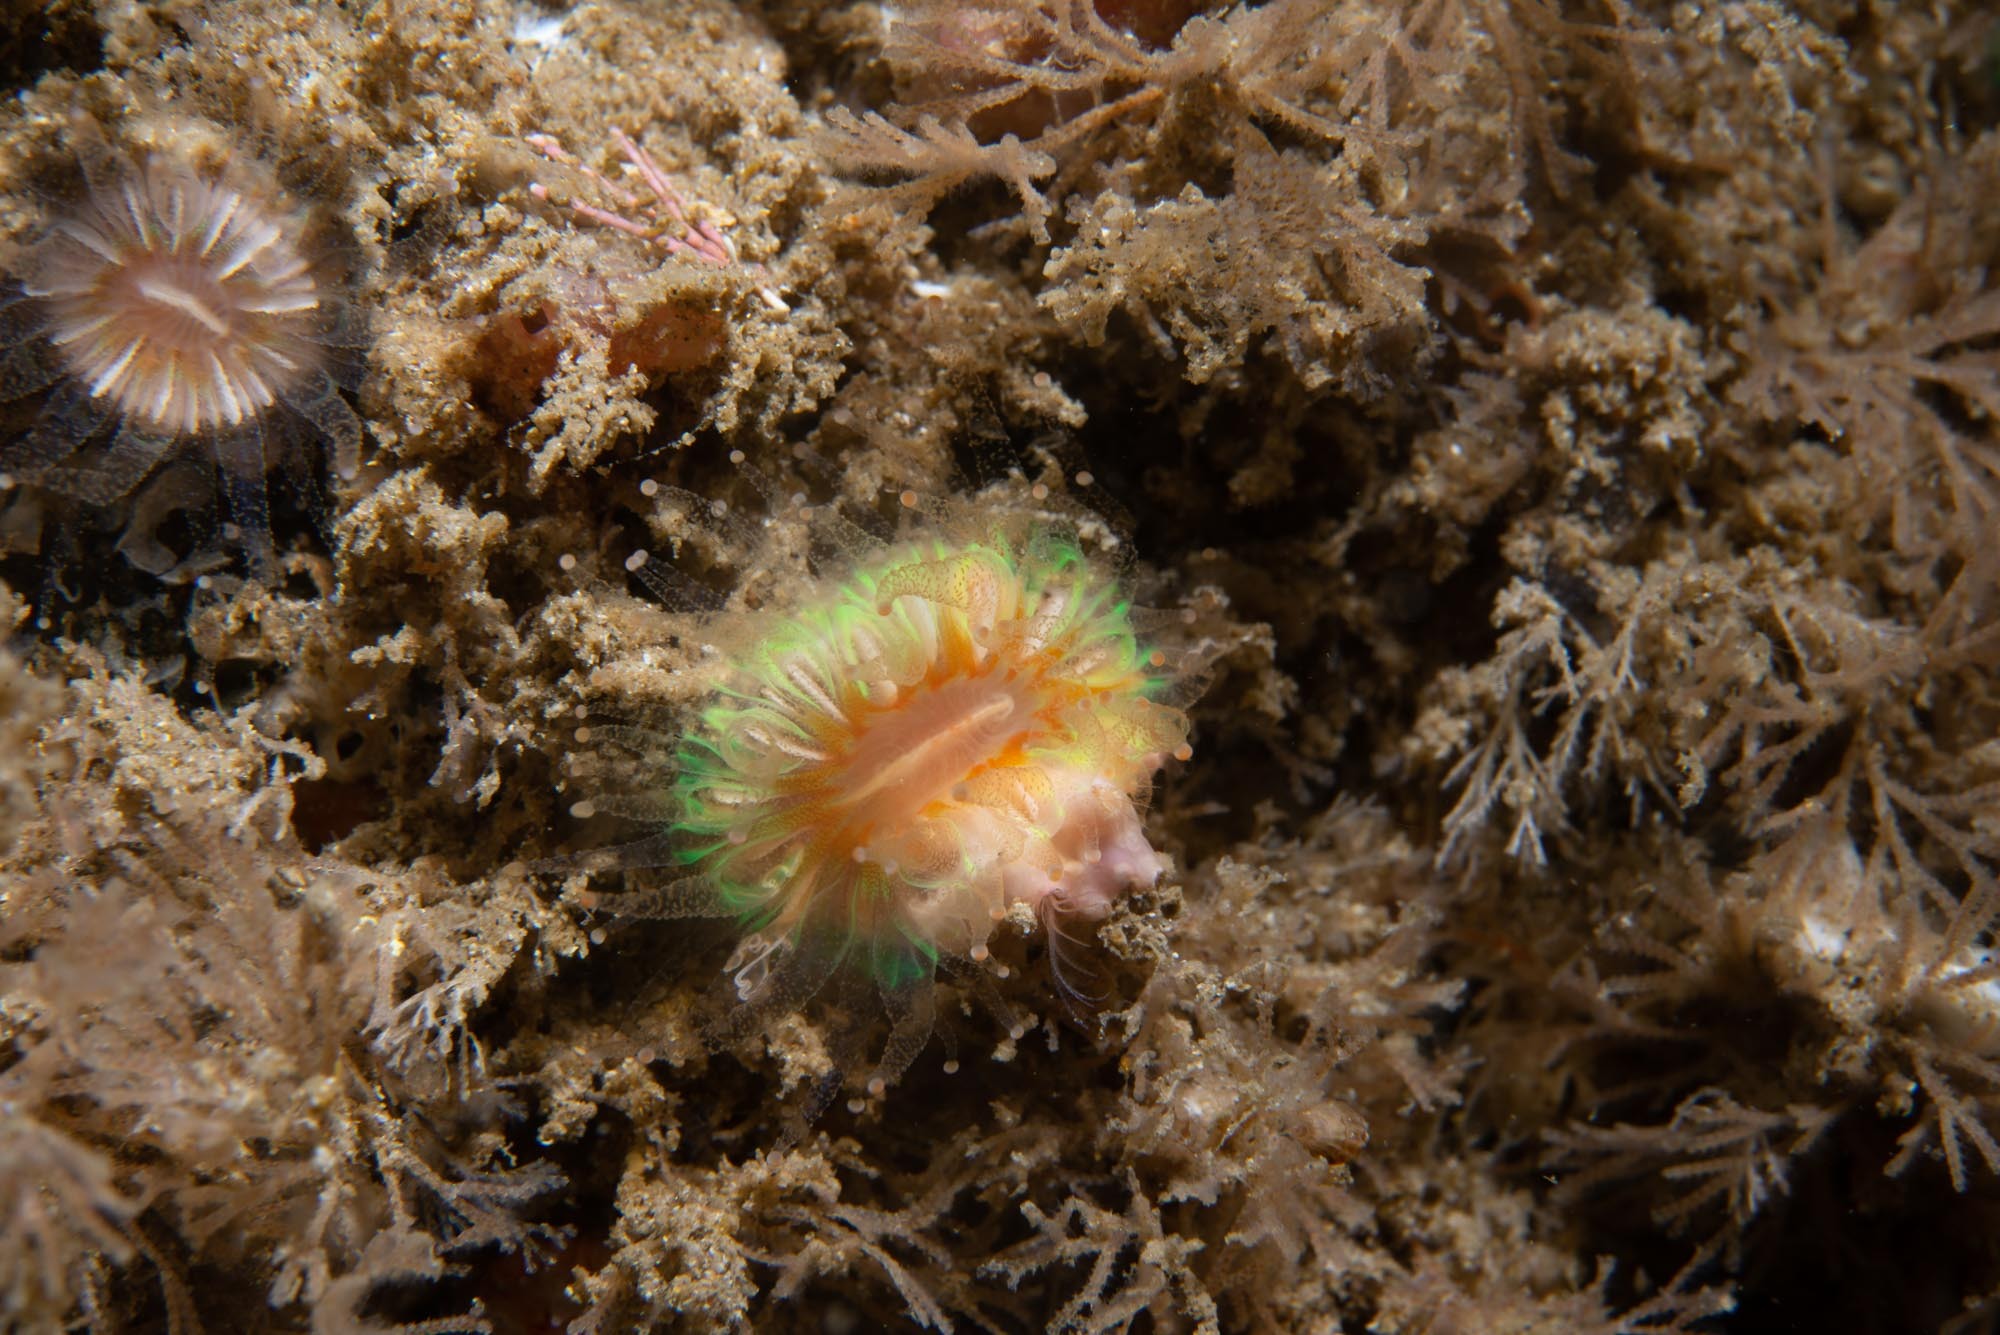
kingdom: Animalia
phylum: Arthropoda
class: Maxillopoda
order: Sessilia
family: Pyrgomatidae
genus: Adna
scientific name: Adna anglica
